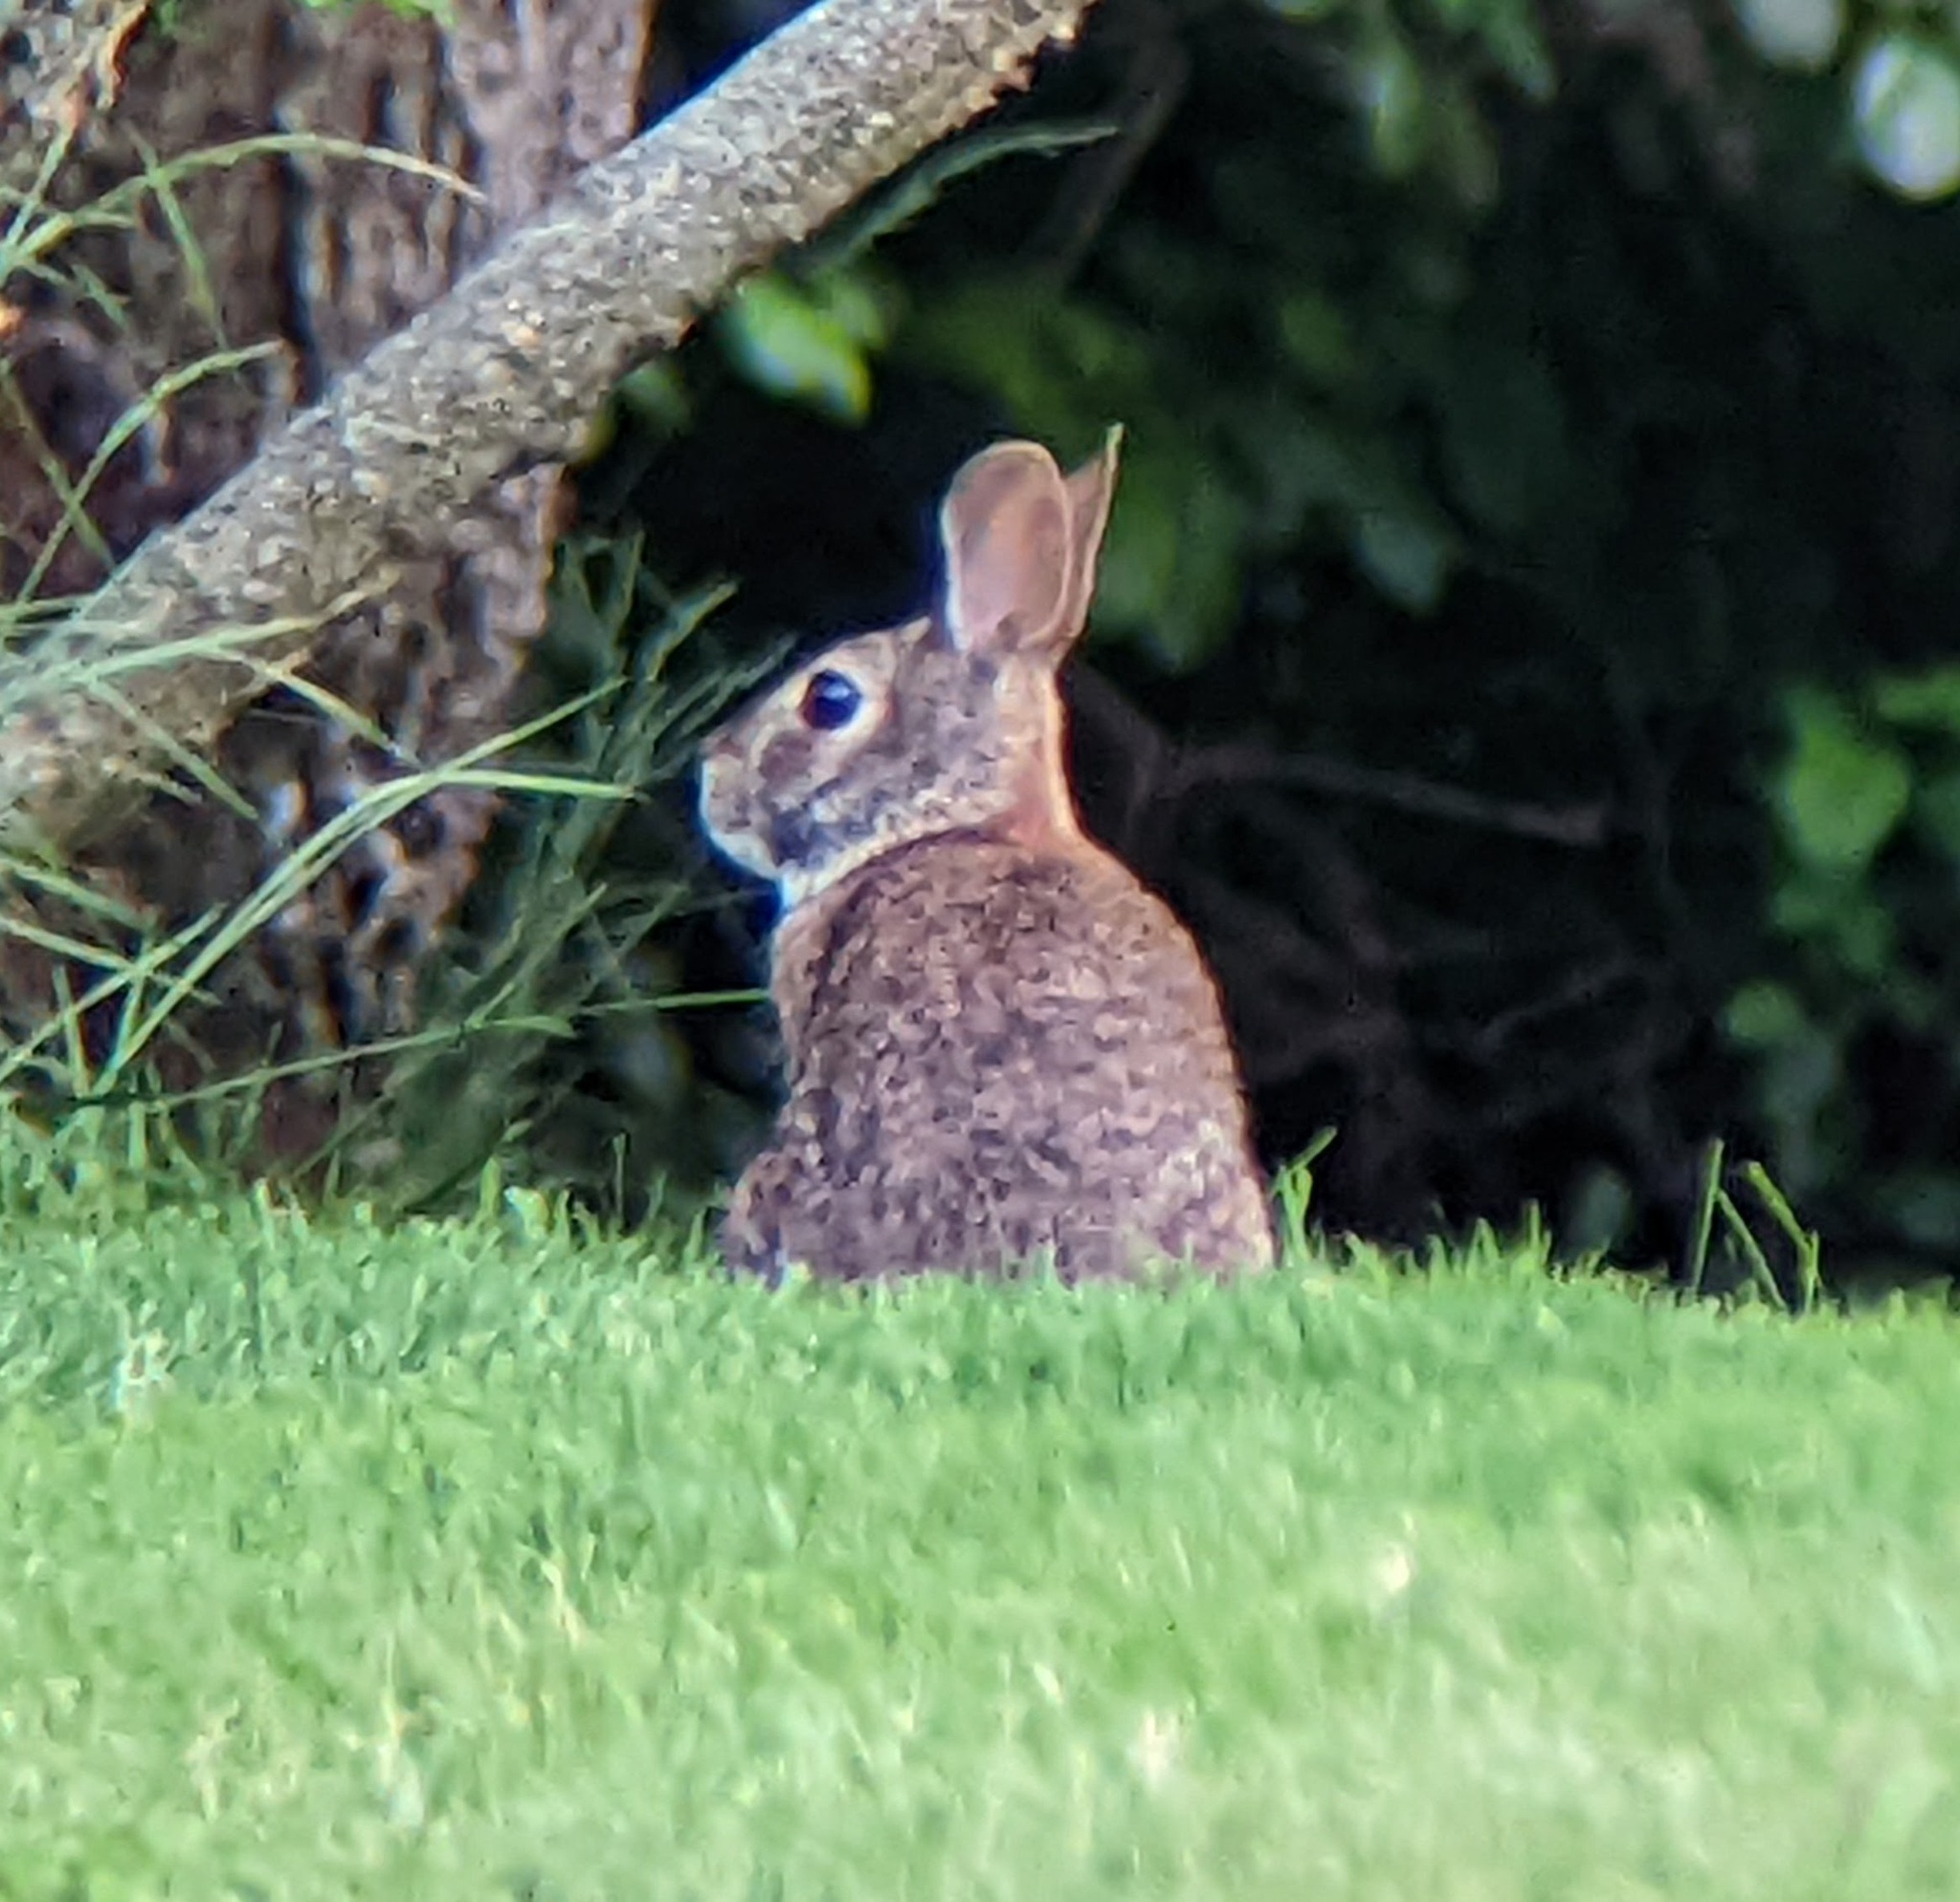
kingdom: Animalia
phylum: Chordata
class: Mammalia
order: Lagomorpha
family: Leporidae
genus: Sylvilagus
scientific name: Sylvilagus floridanus
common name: Eastern cottontail
